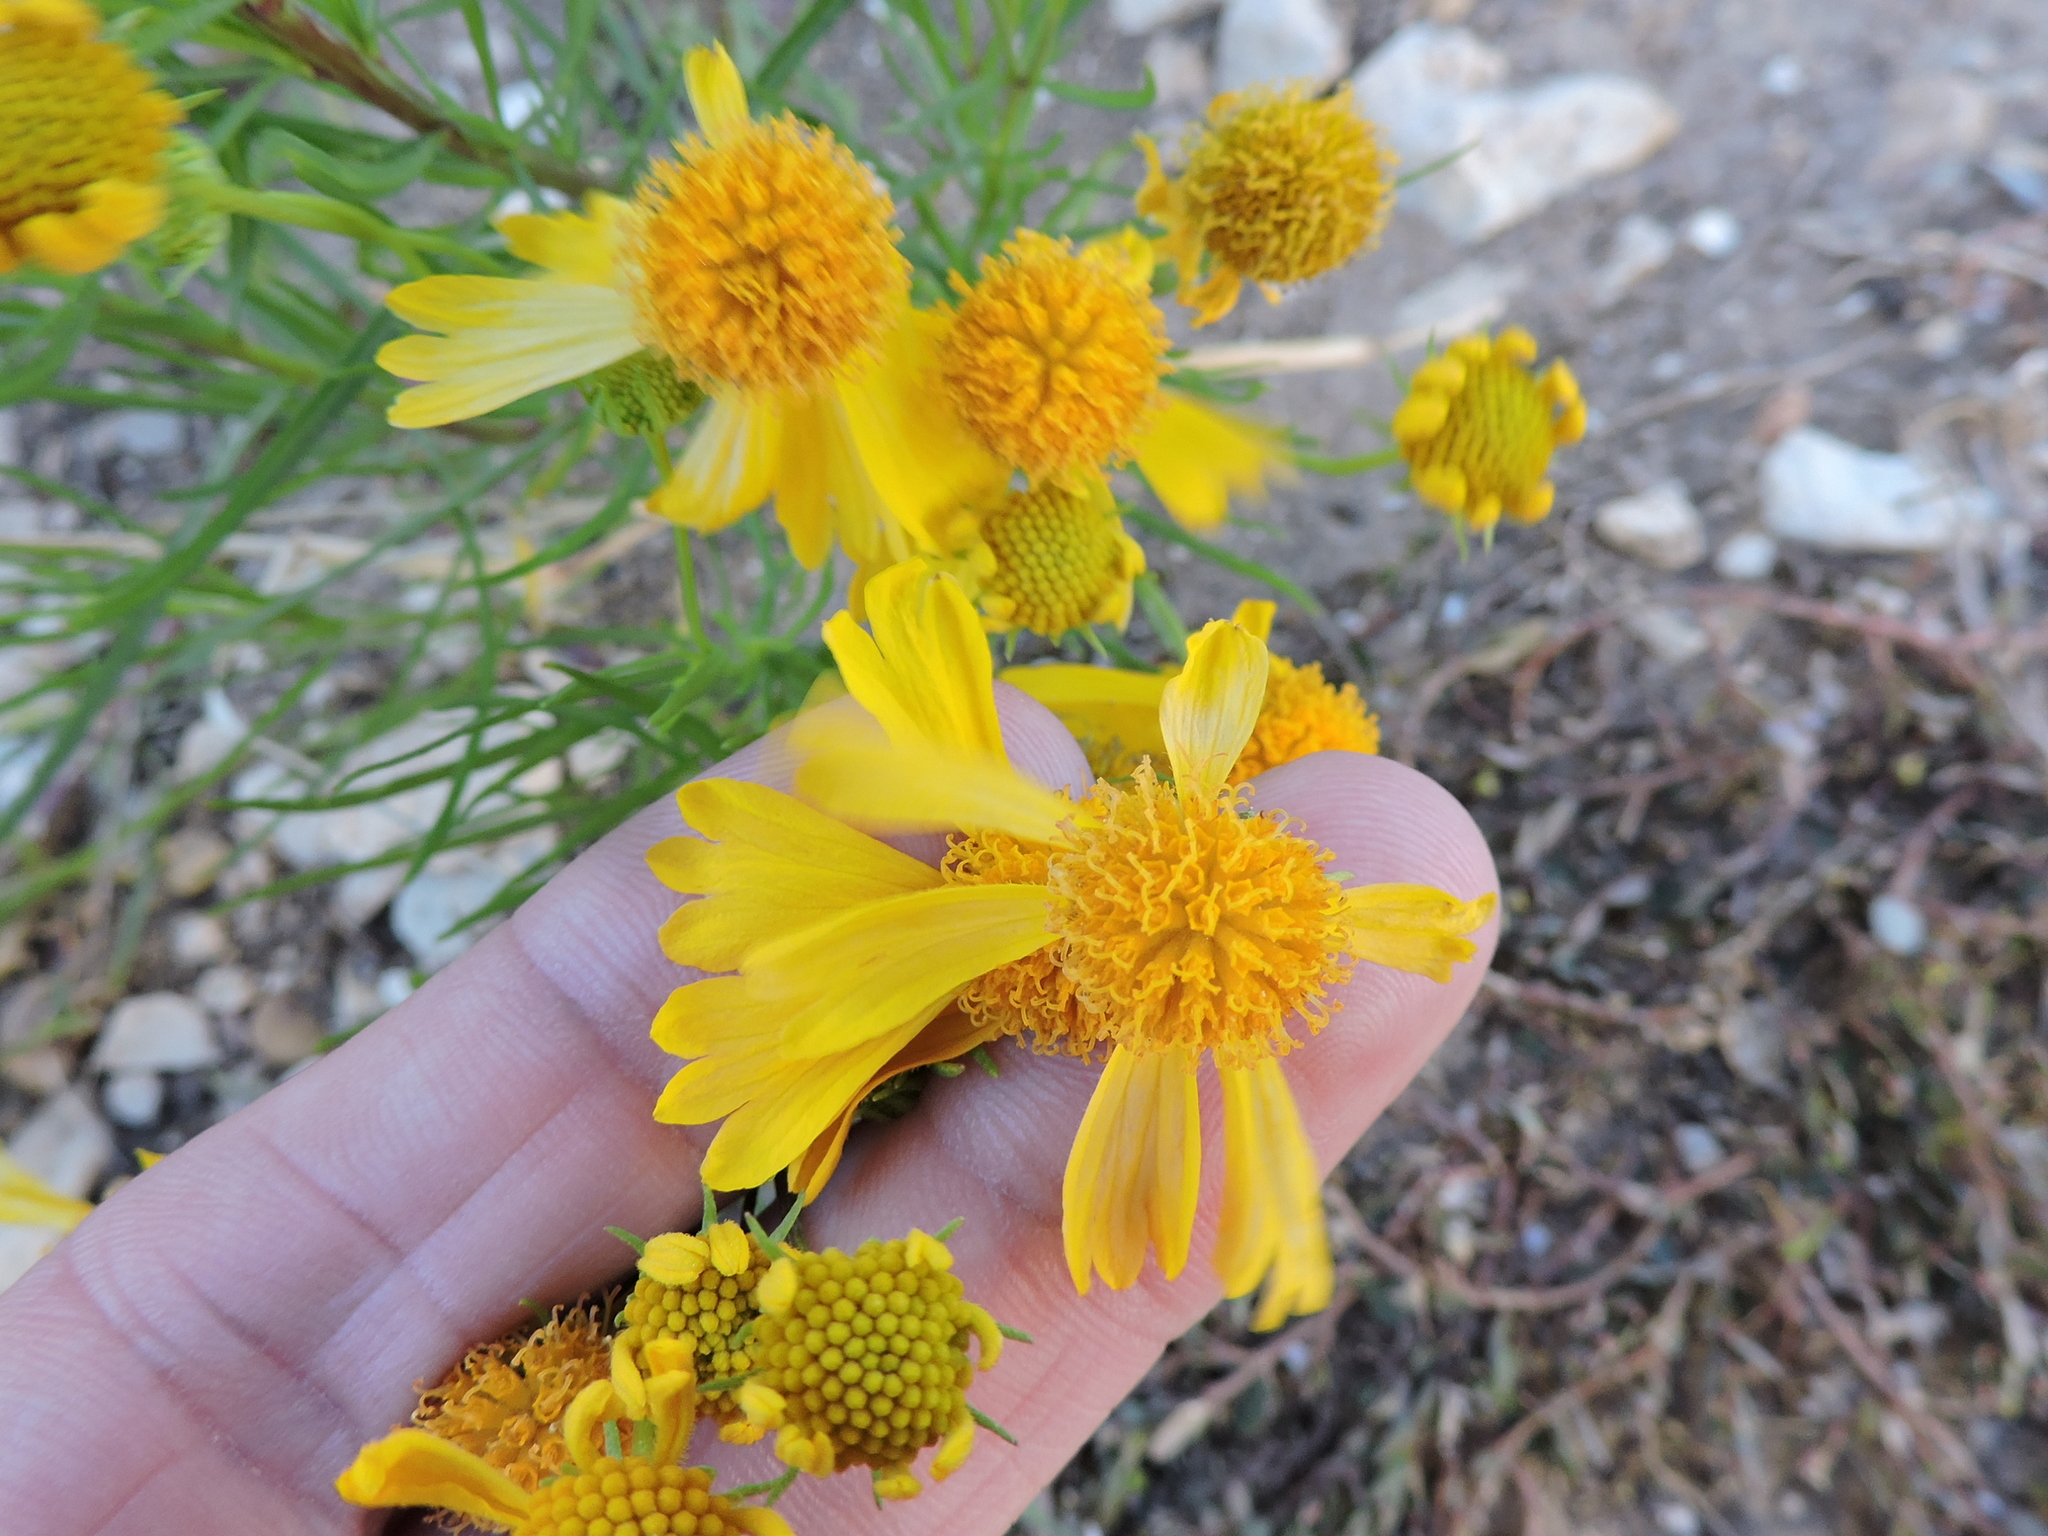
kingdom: Plantae
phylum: Tracheophyta
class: Magnoliopsida
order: Asterales
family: Asteraceae
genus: Helenium
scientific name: Helenium amarum
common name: Bitter sneezeweed
